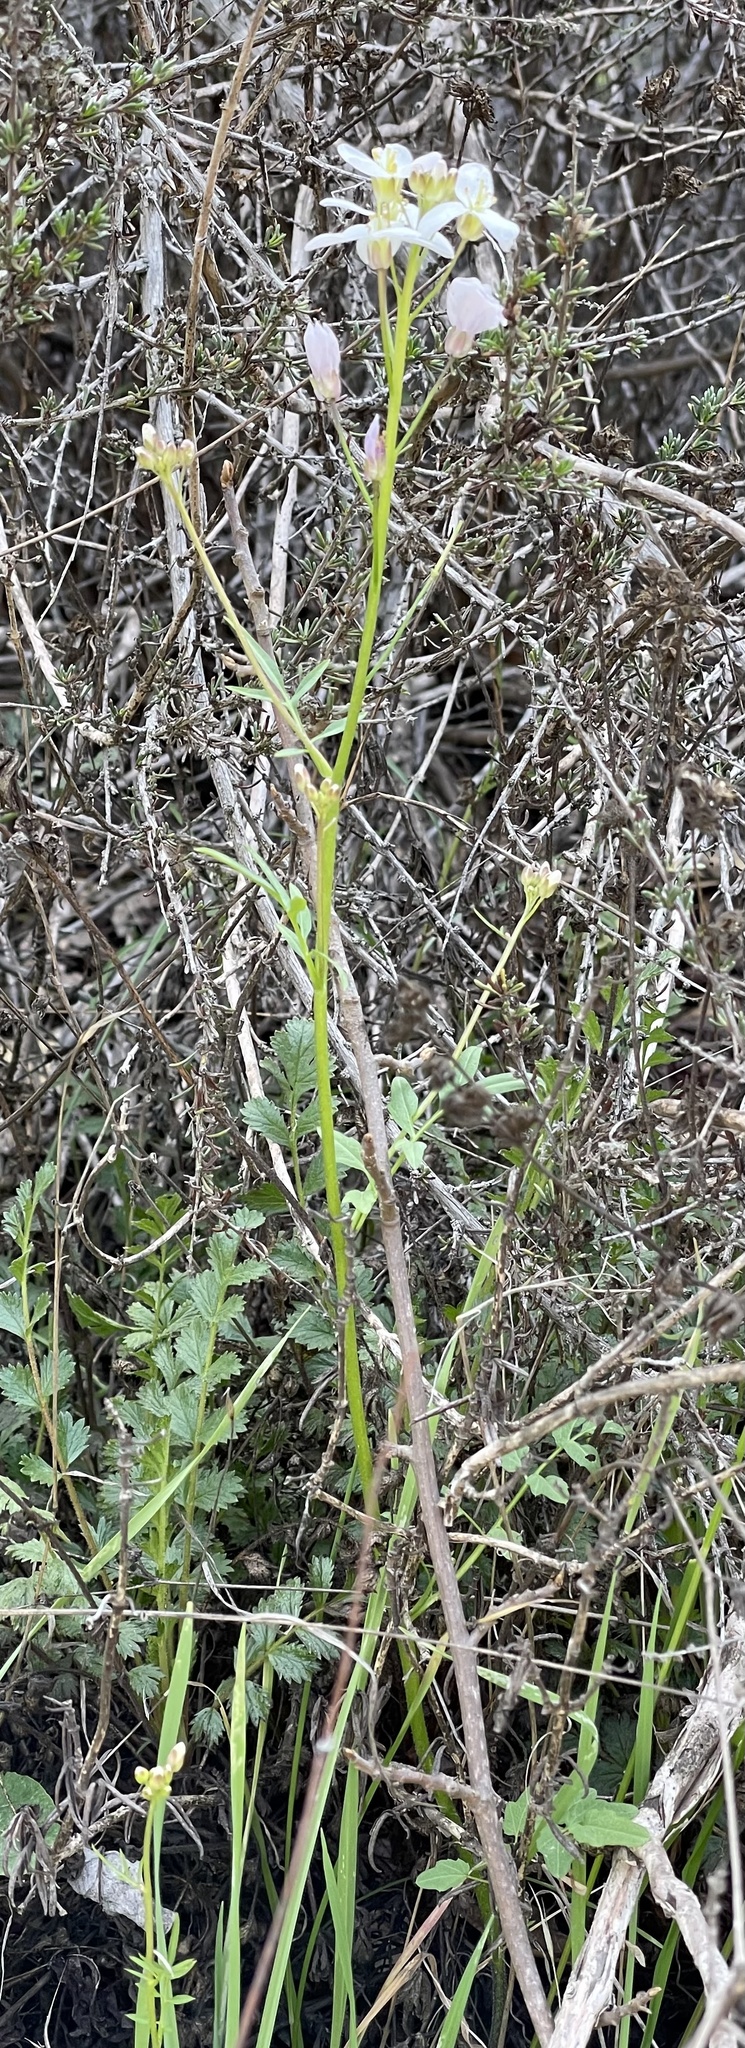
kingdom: Plantae
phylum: Tracheophyta
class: Magnoliopsida
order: Brassicales
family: Brassicaceae
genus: Cardamine
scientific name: Cardamine californica
